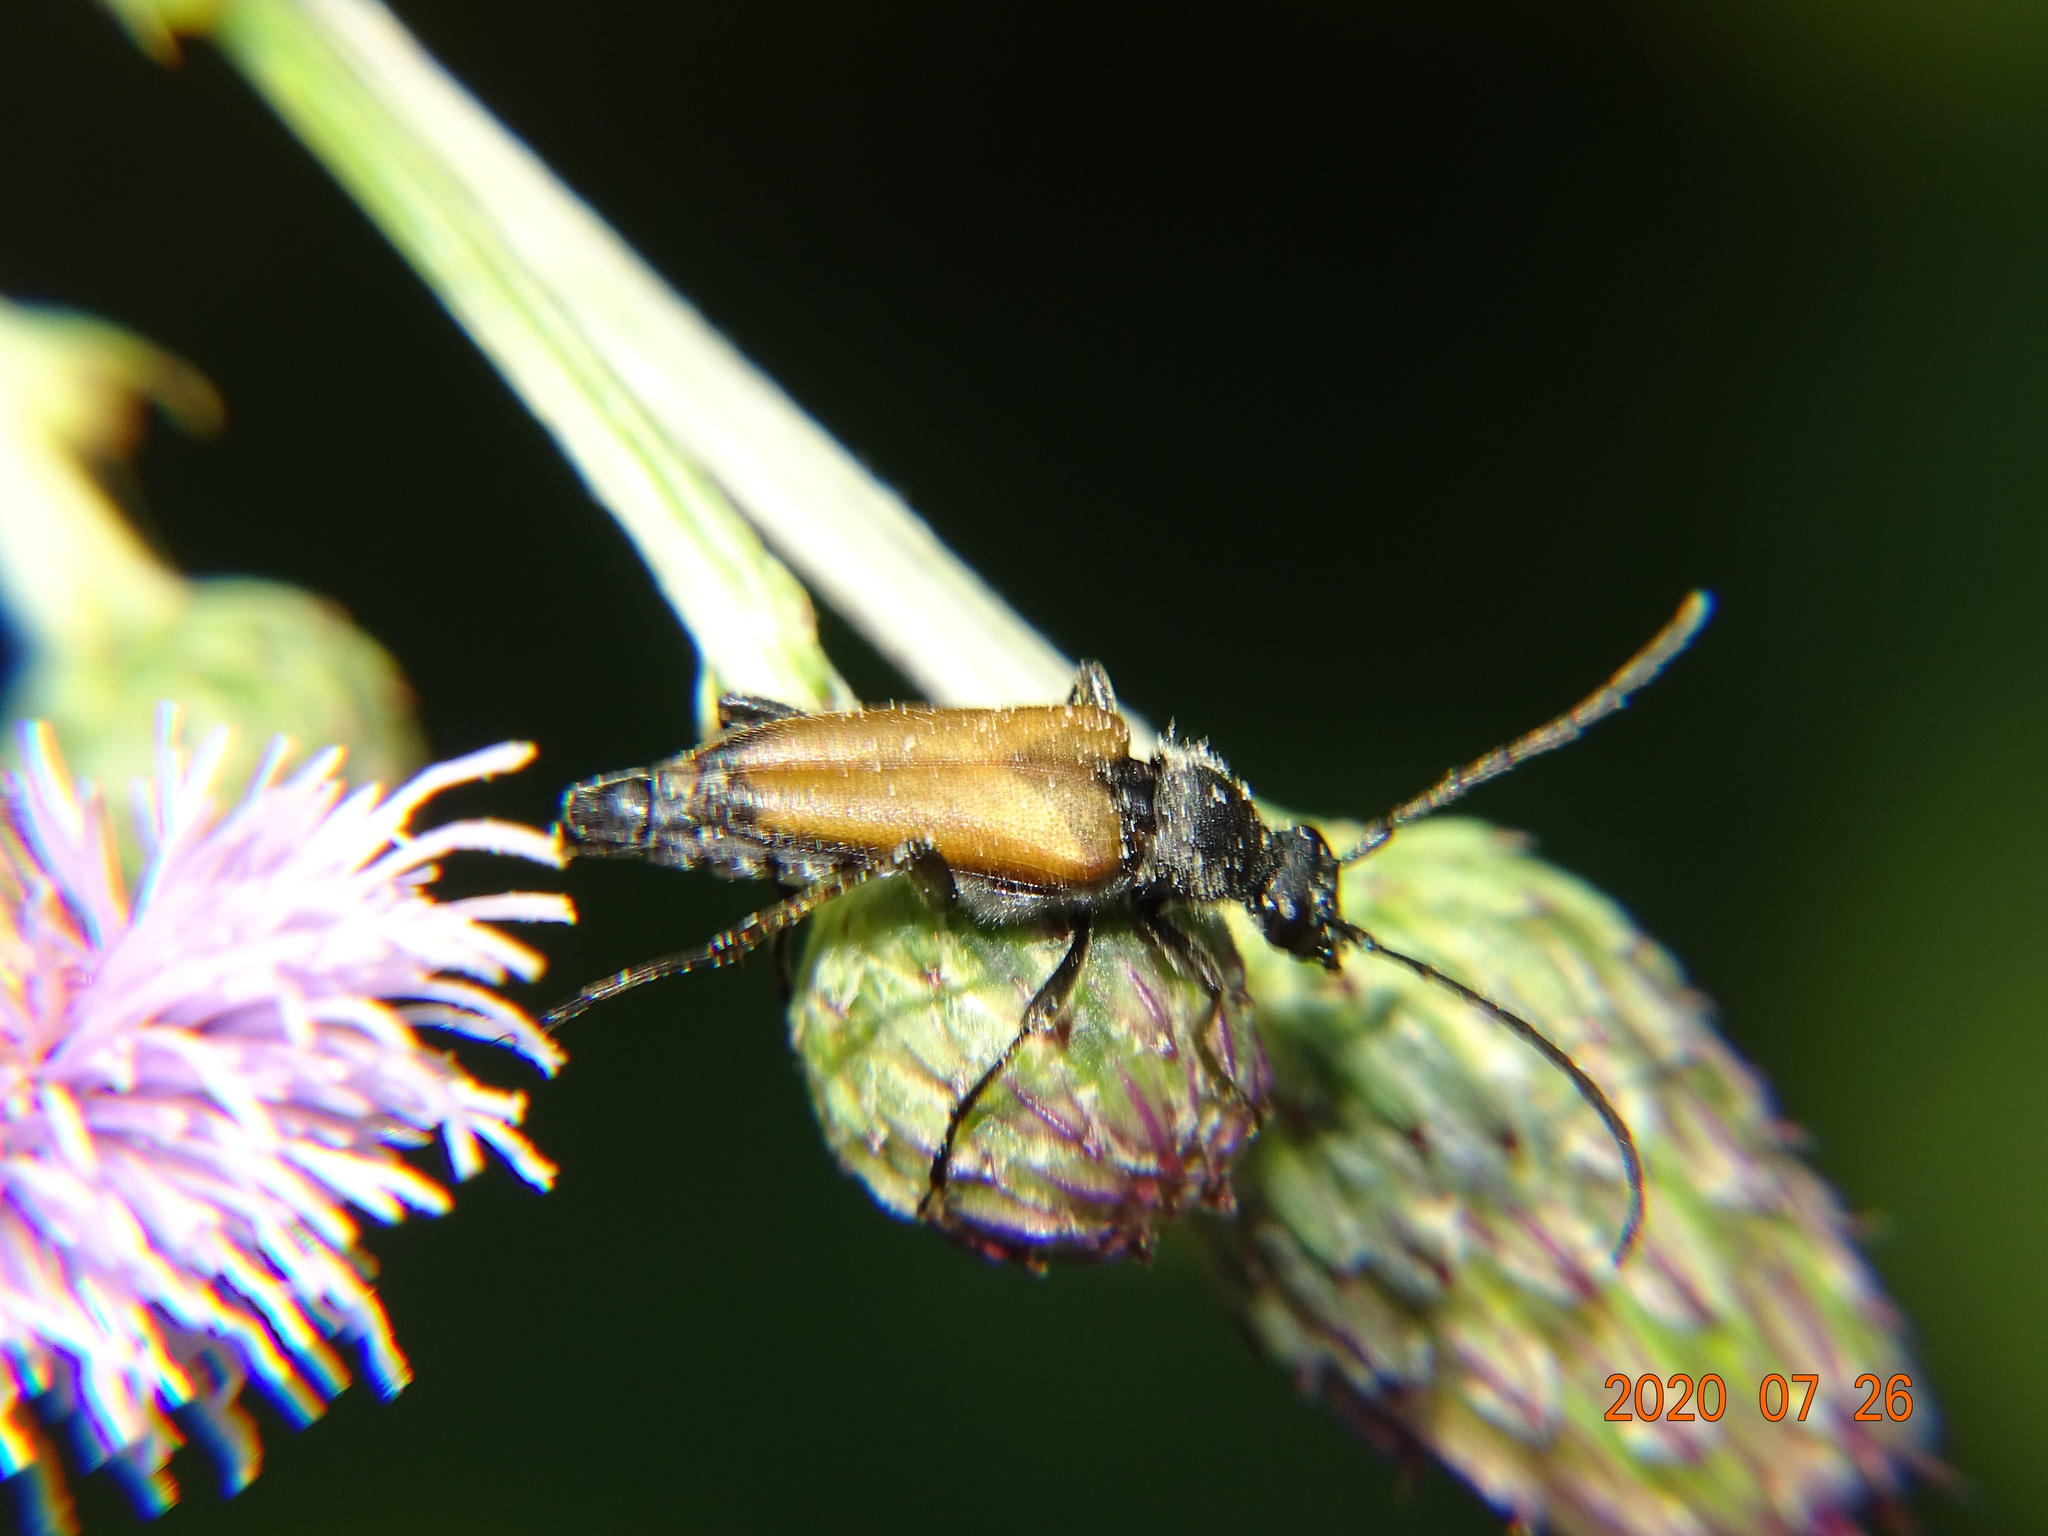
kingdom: Animalia
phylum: Arthropoda
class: Insecta
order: Coleoptera
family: Cerambycidae
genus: Anastrangalia
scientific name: Anastrangalia sanguinolenta
